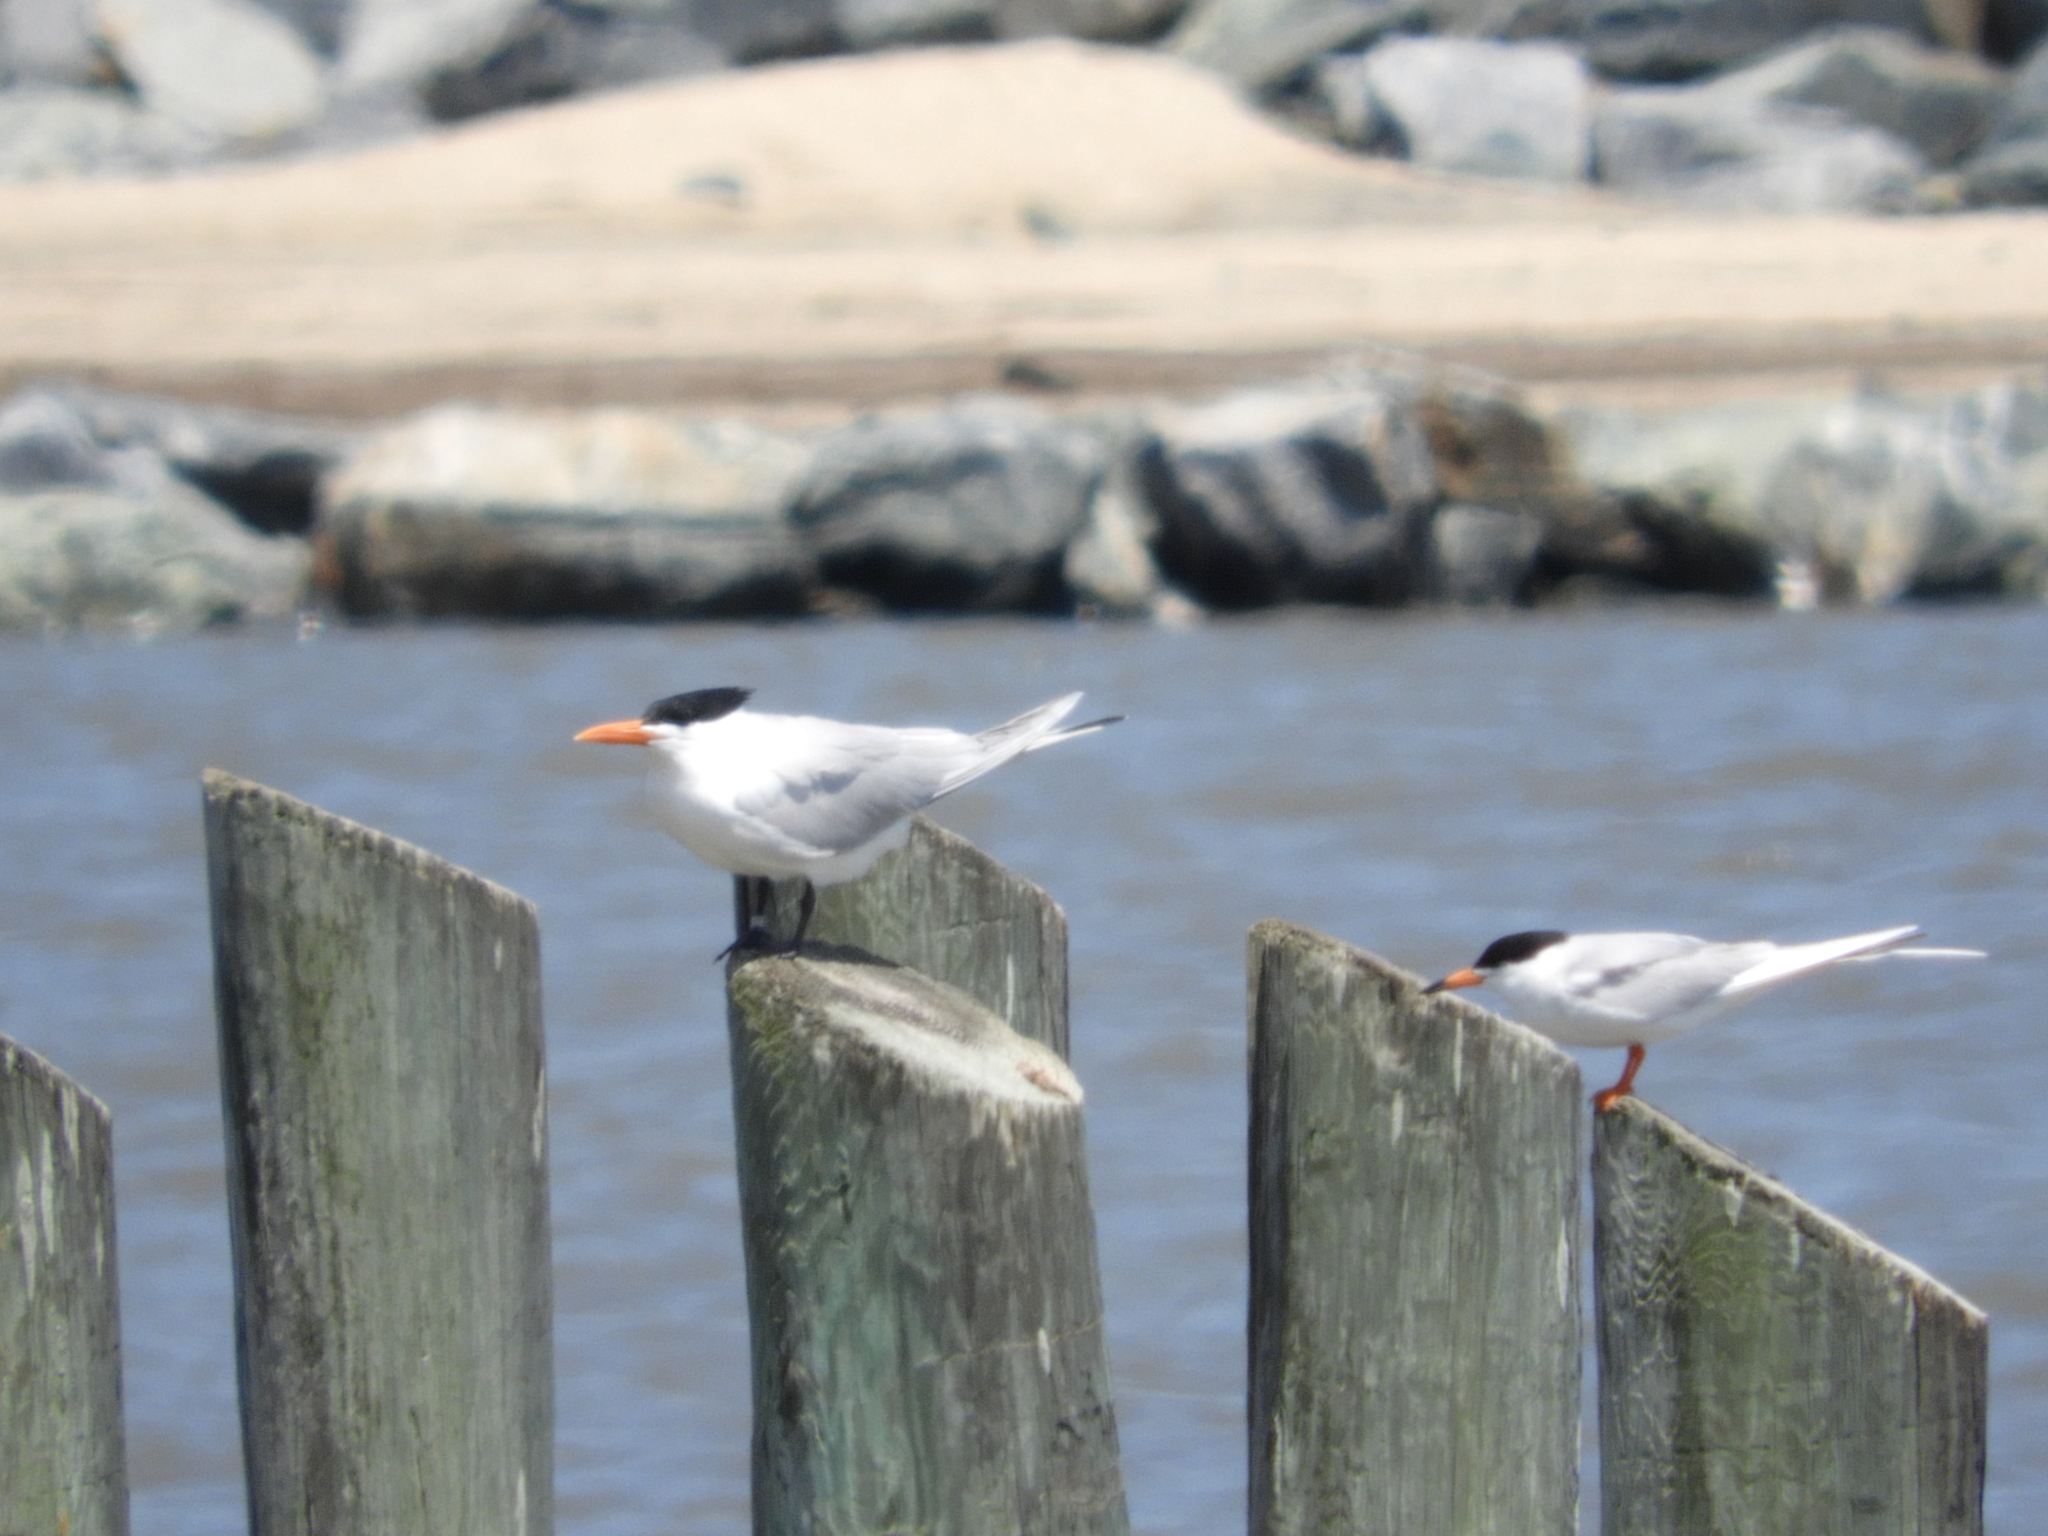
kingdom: Animalia
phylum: Chordata
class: Aves
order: Charadriiformes
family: Laridae
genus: Thalasseus
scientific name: Thalasseus maximus
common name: Royal tern
